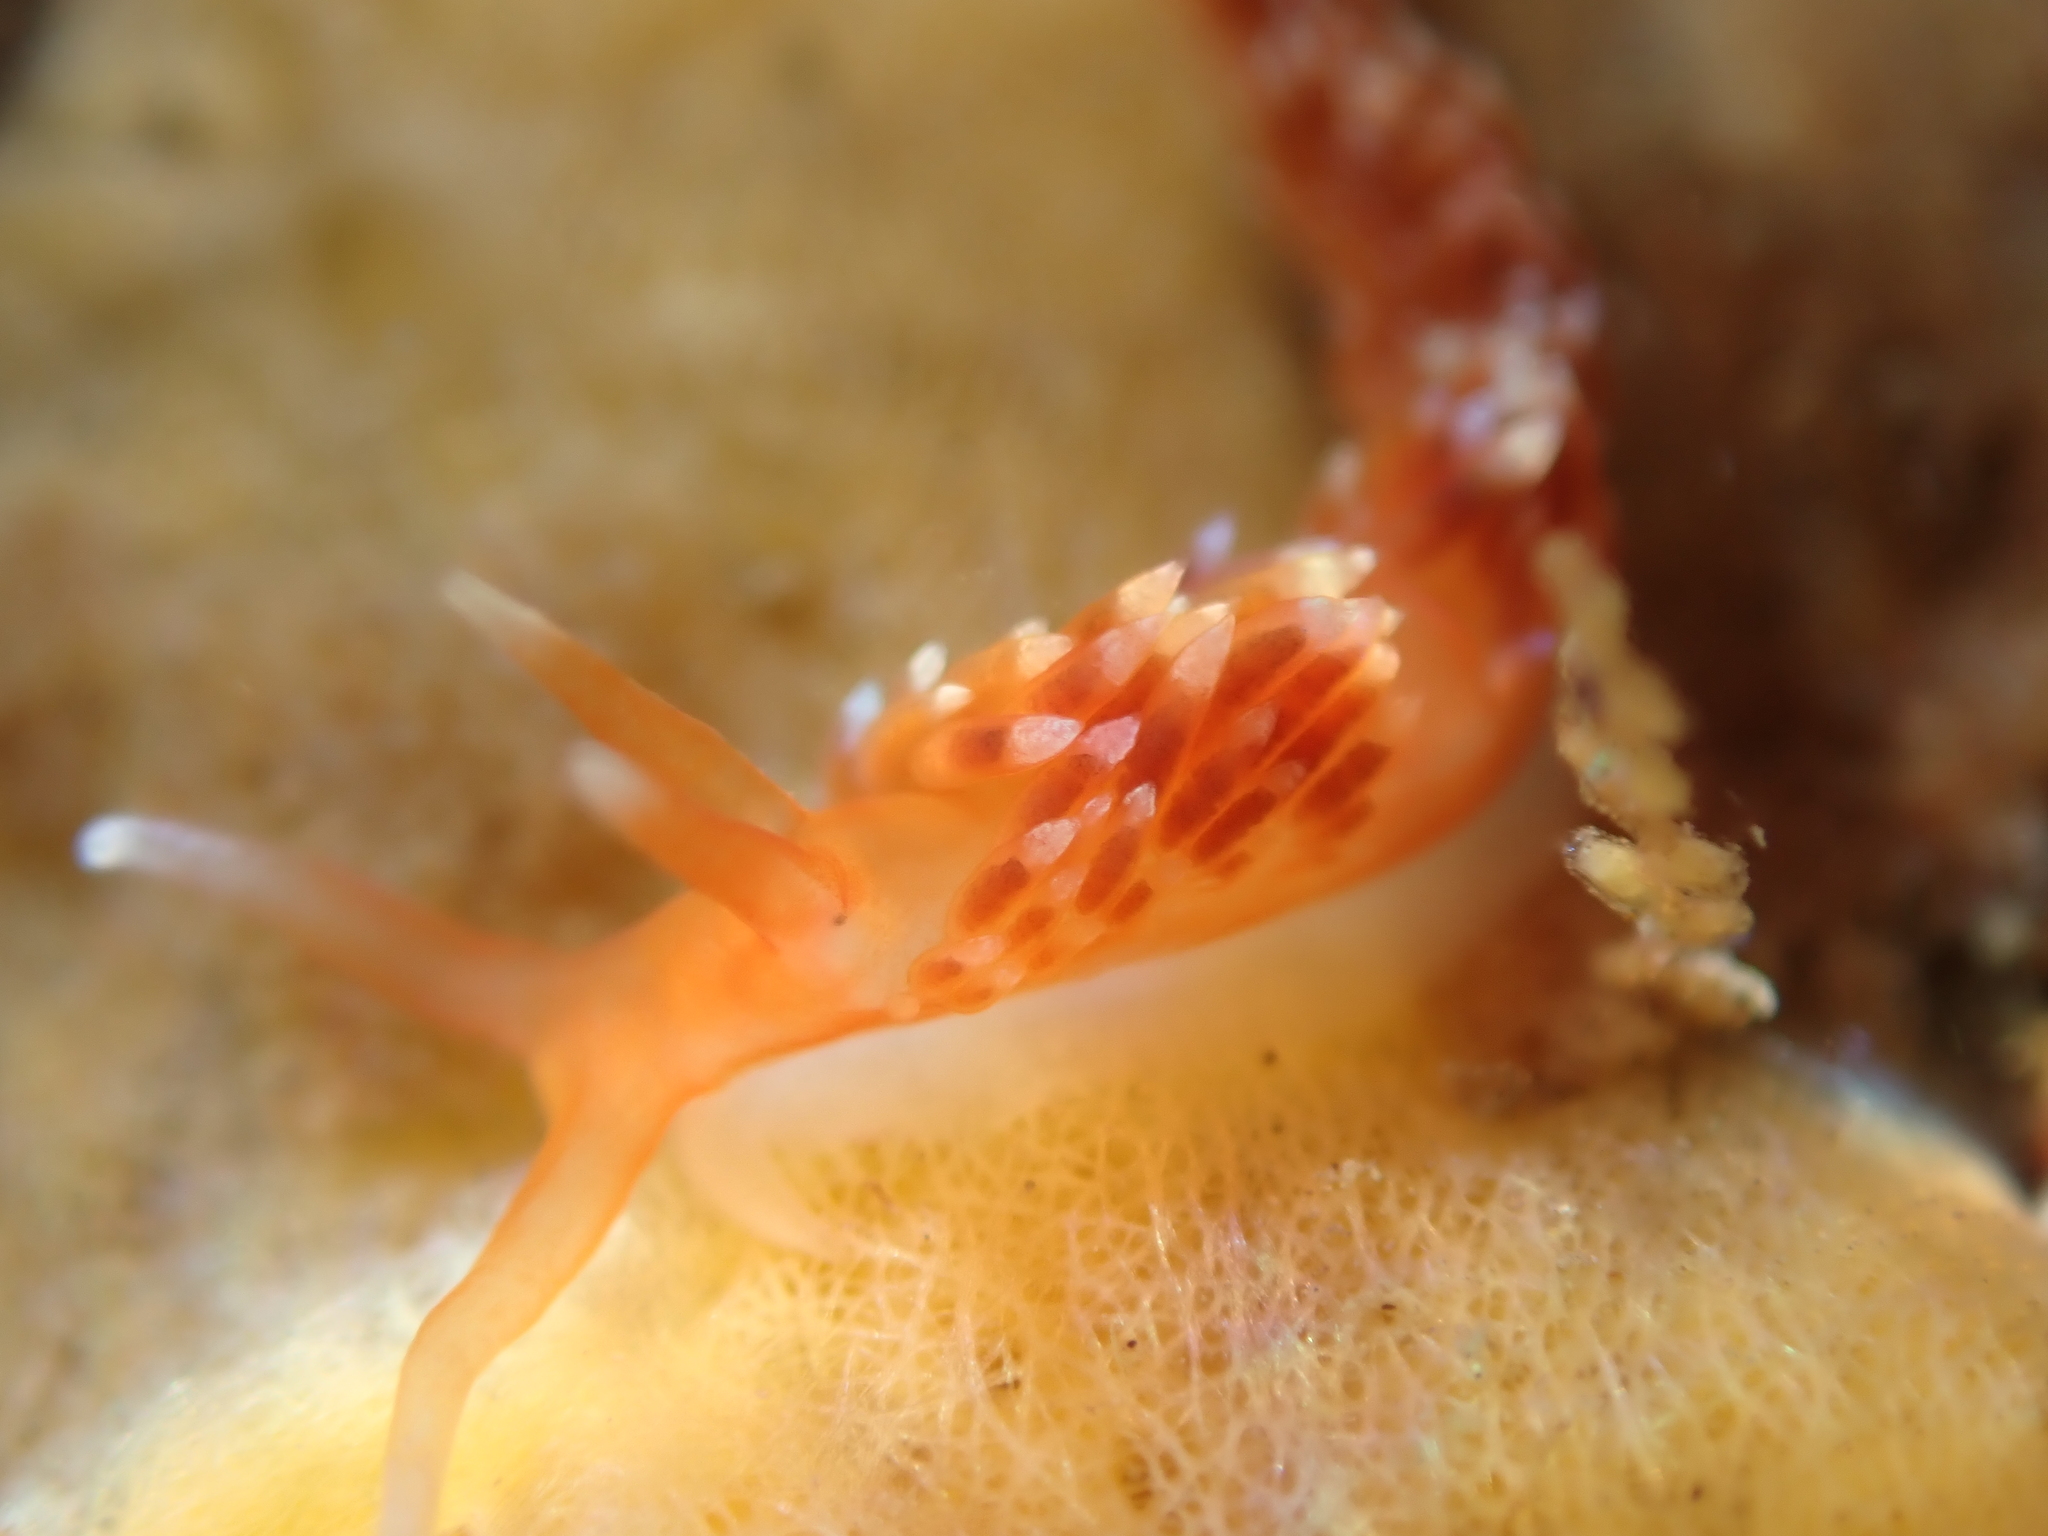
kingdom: Animalia
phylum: Mollusca
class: Gastropoda
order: Nudibranchia
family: Facelinidae
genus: Phidiana
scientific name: Phidiana milleri
